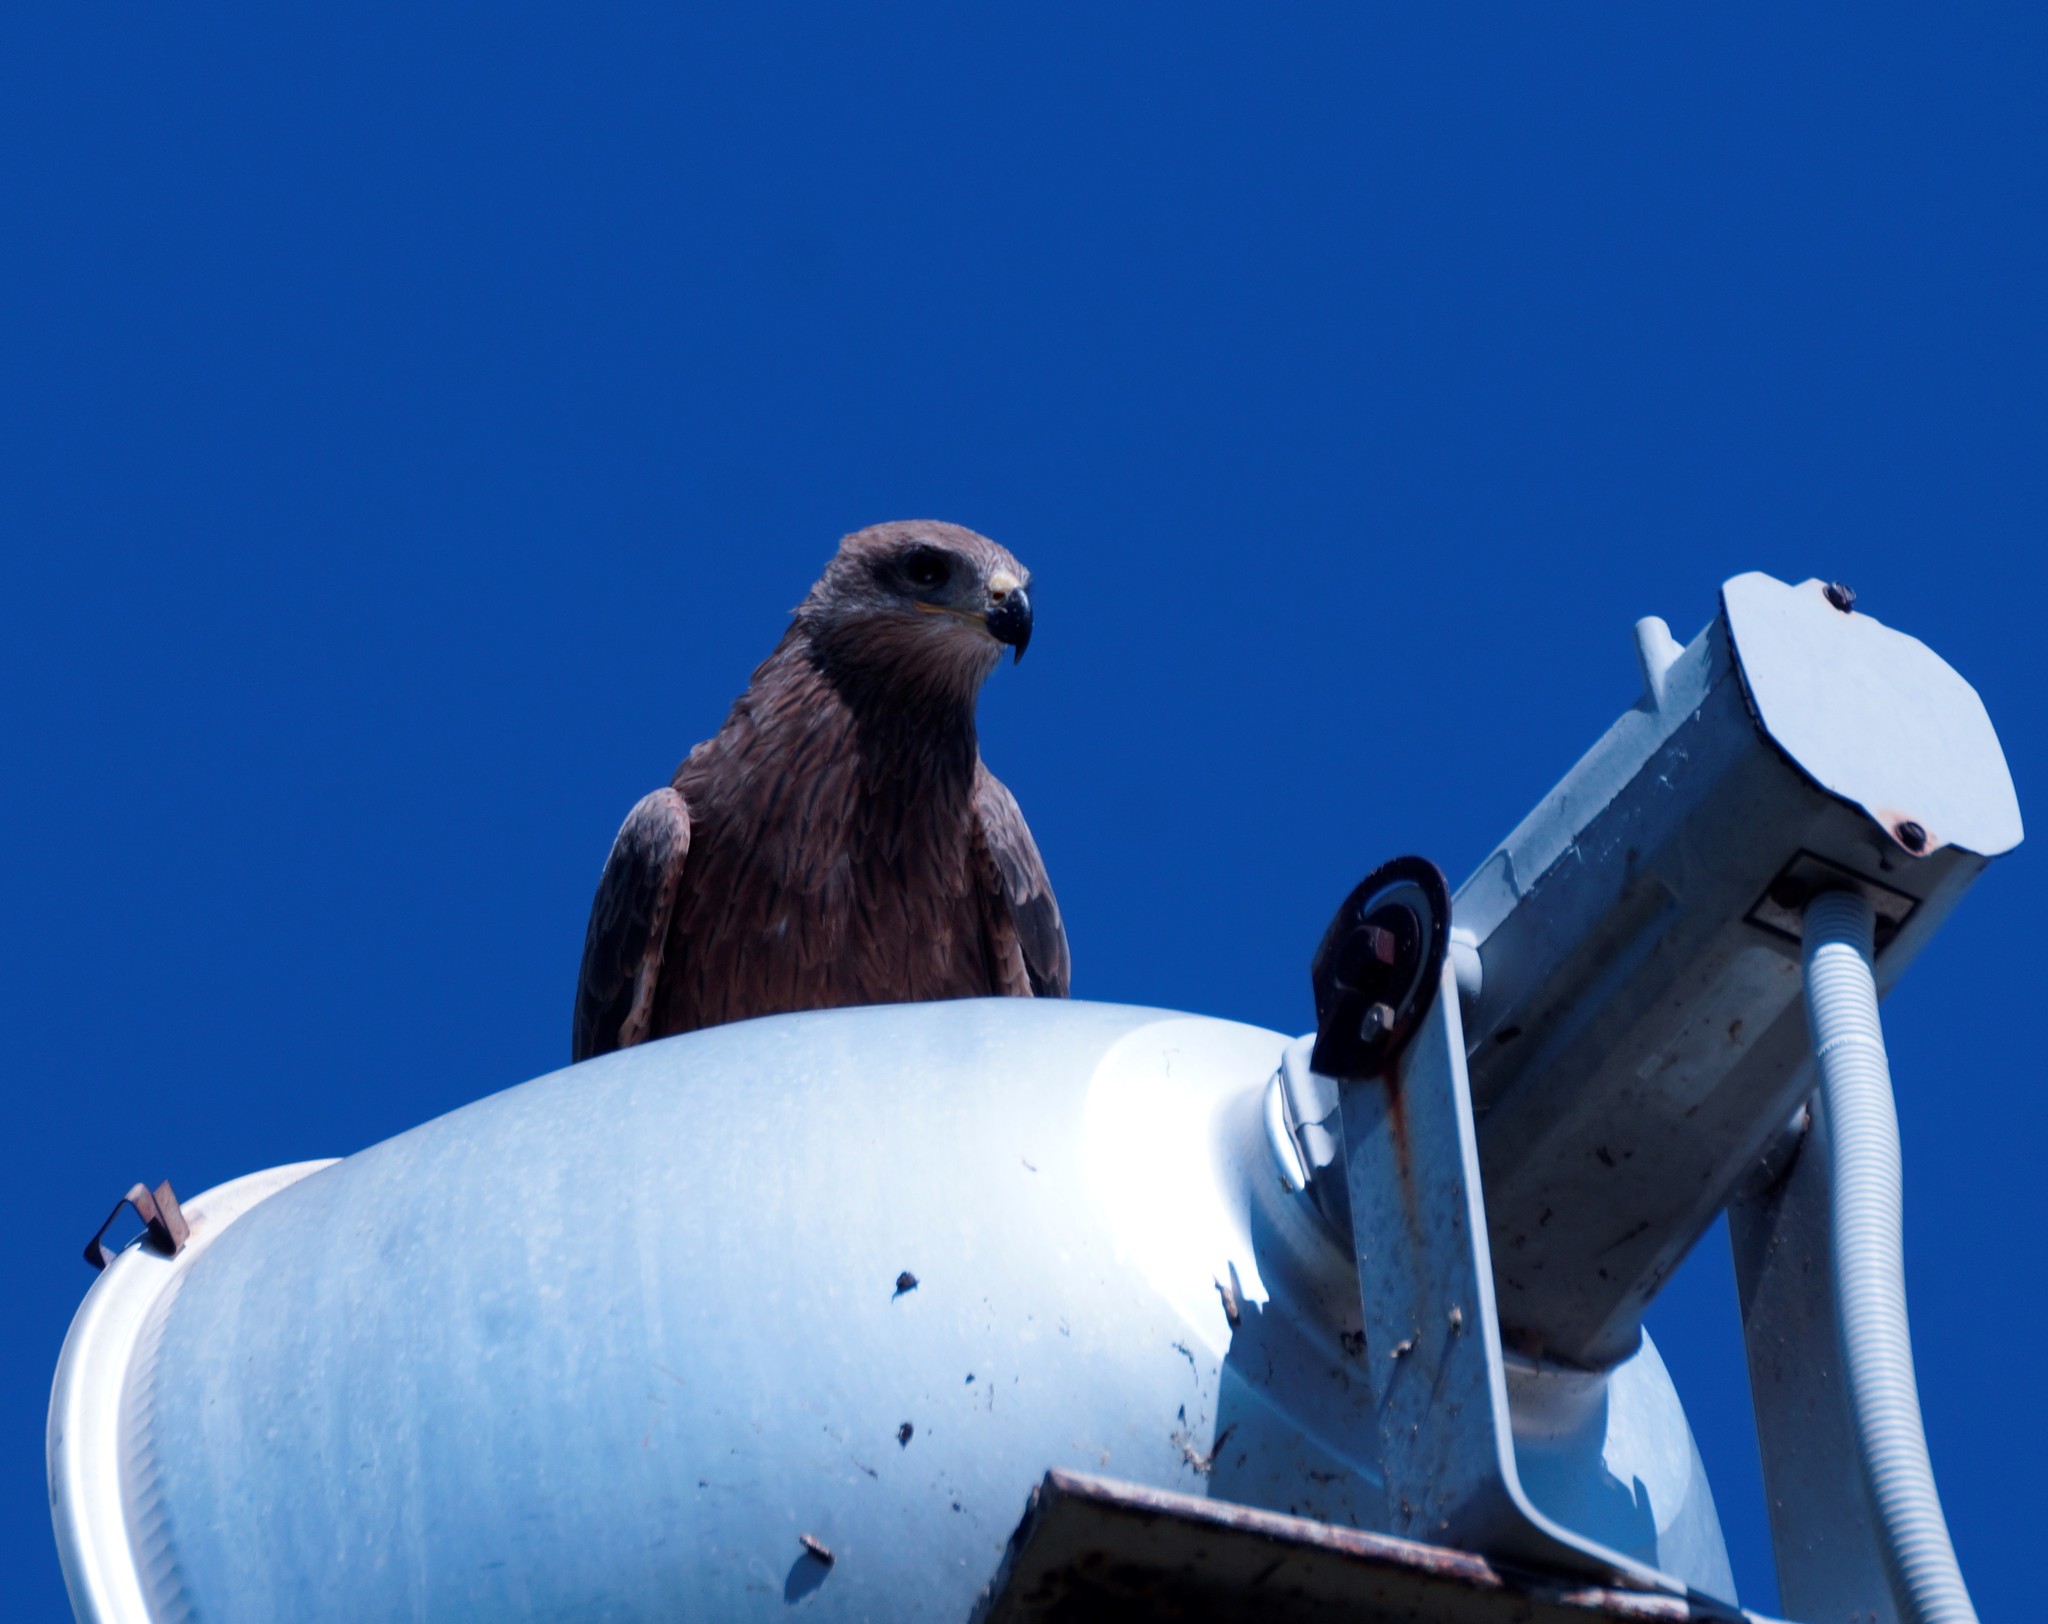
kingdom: Animalia
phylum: Chordata
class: Aves
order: Accipitriformes
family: Accipitridae
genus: Milvus
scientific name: Milvus migrans
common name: Black kite
